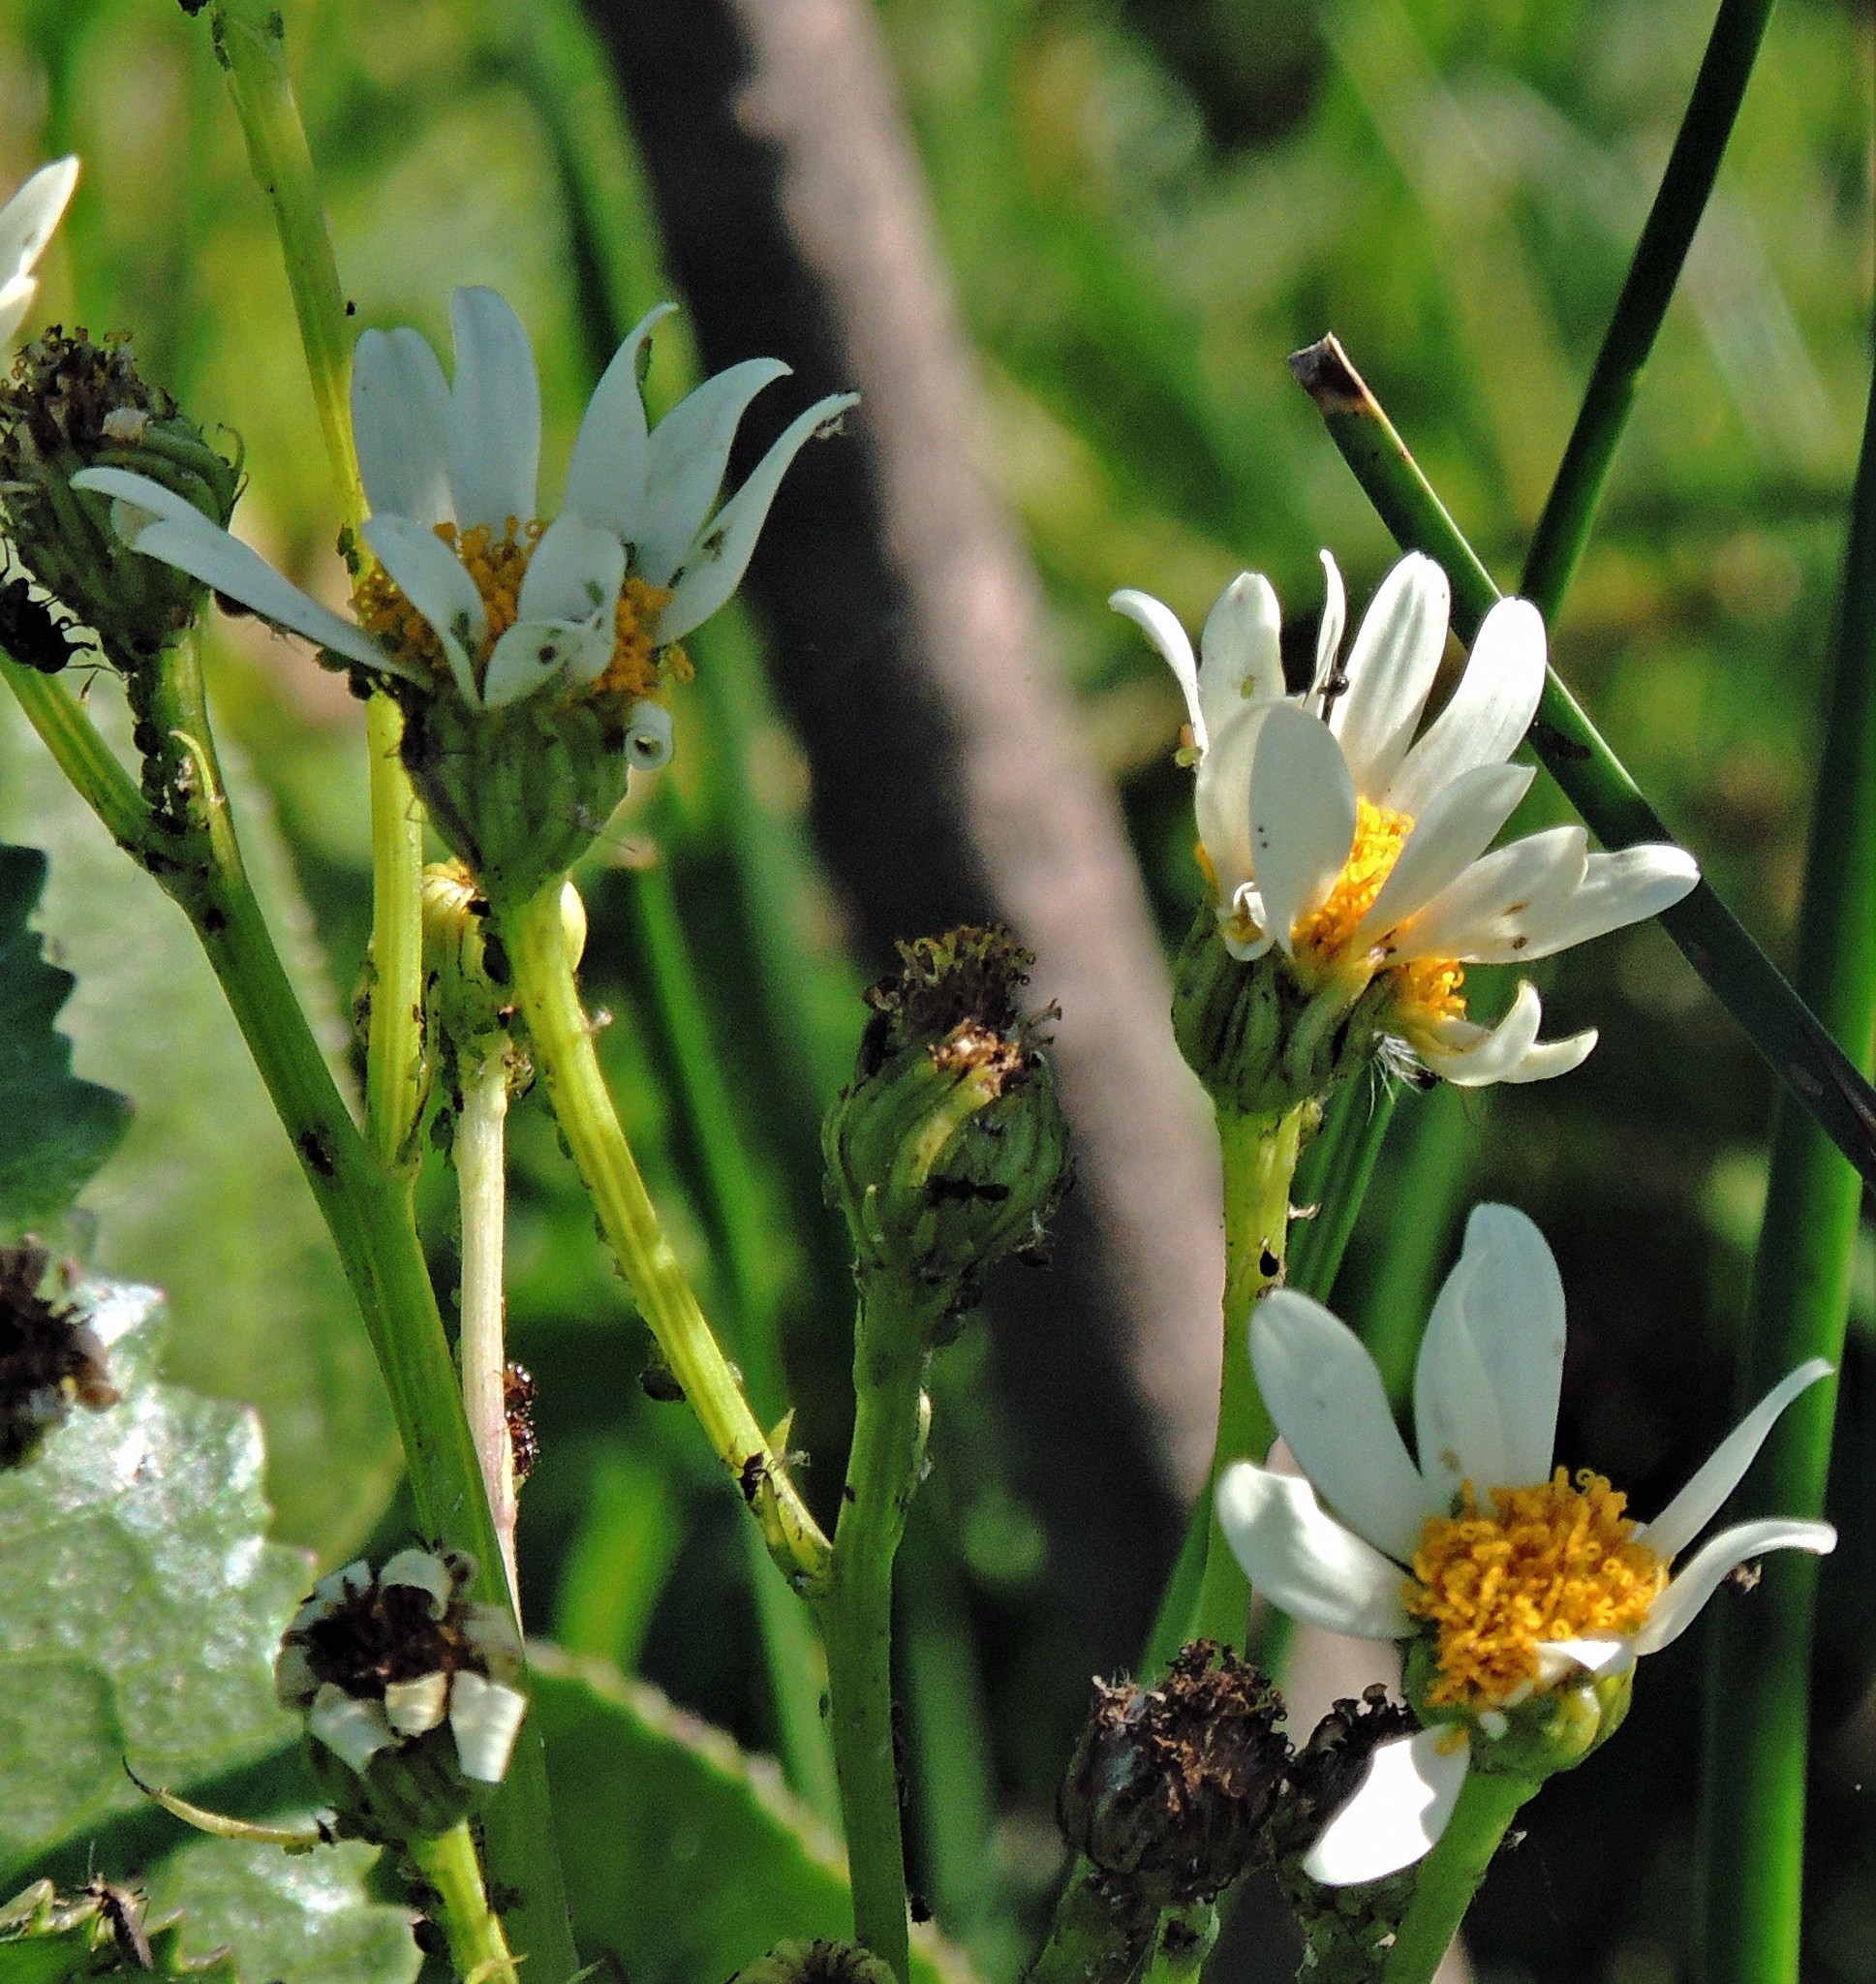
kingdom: Plantae
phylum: Tracheophyta
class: Magnoliopsida
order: Asterales
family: Asteraceae
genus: Senecio
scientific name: Senecio bonariensis
